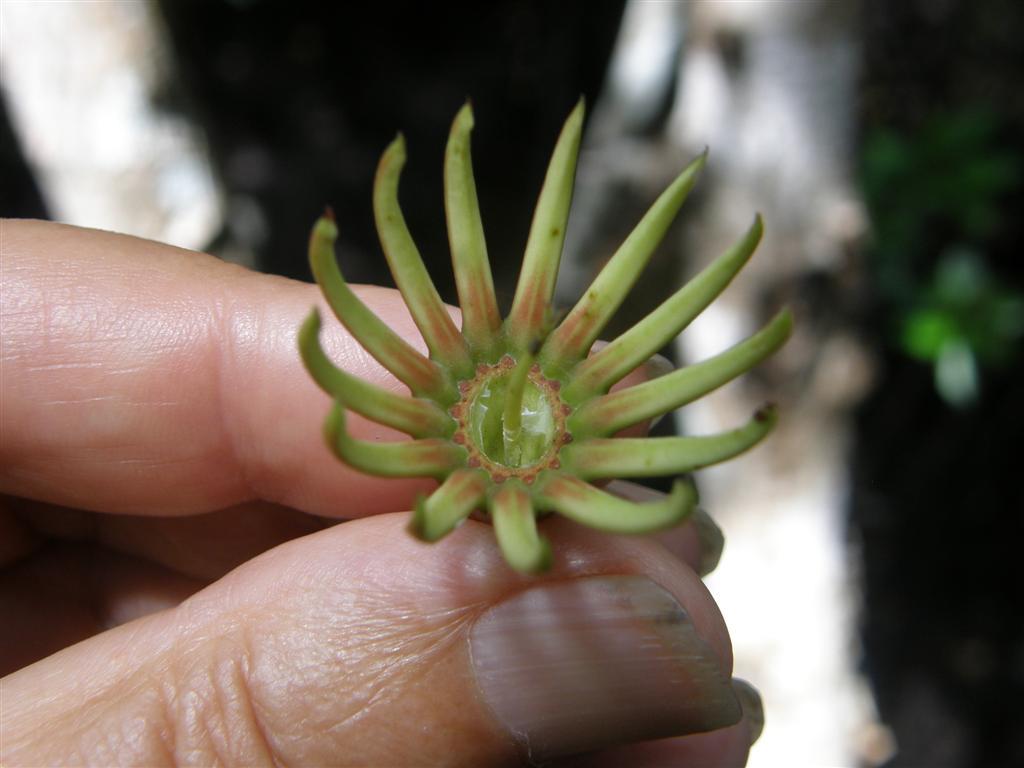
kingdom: Plantae
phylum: Tracheophyta
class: Magnoliopsida
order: Malpighiales
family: Rhizophoraceae
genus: Bruguiera
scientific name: Bruguiera gymnorhiza
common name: Oriental mangrove
